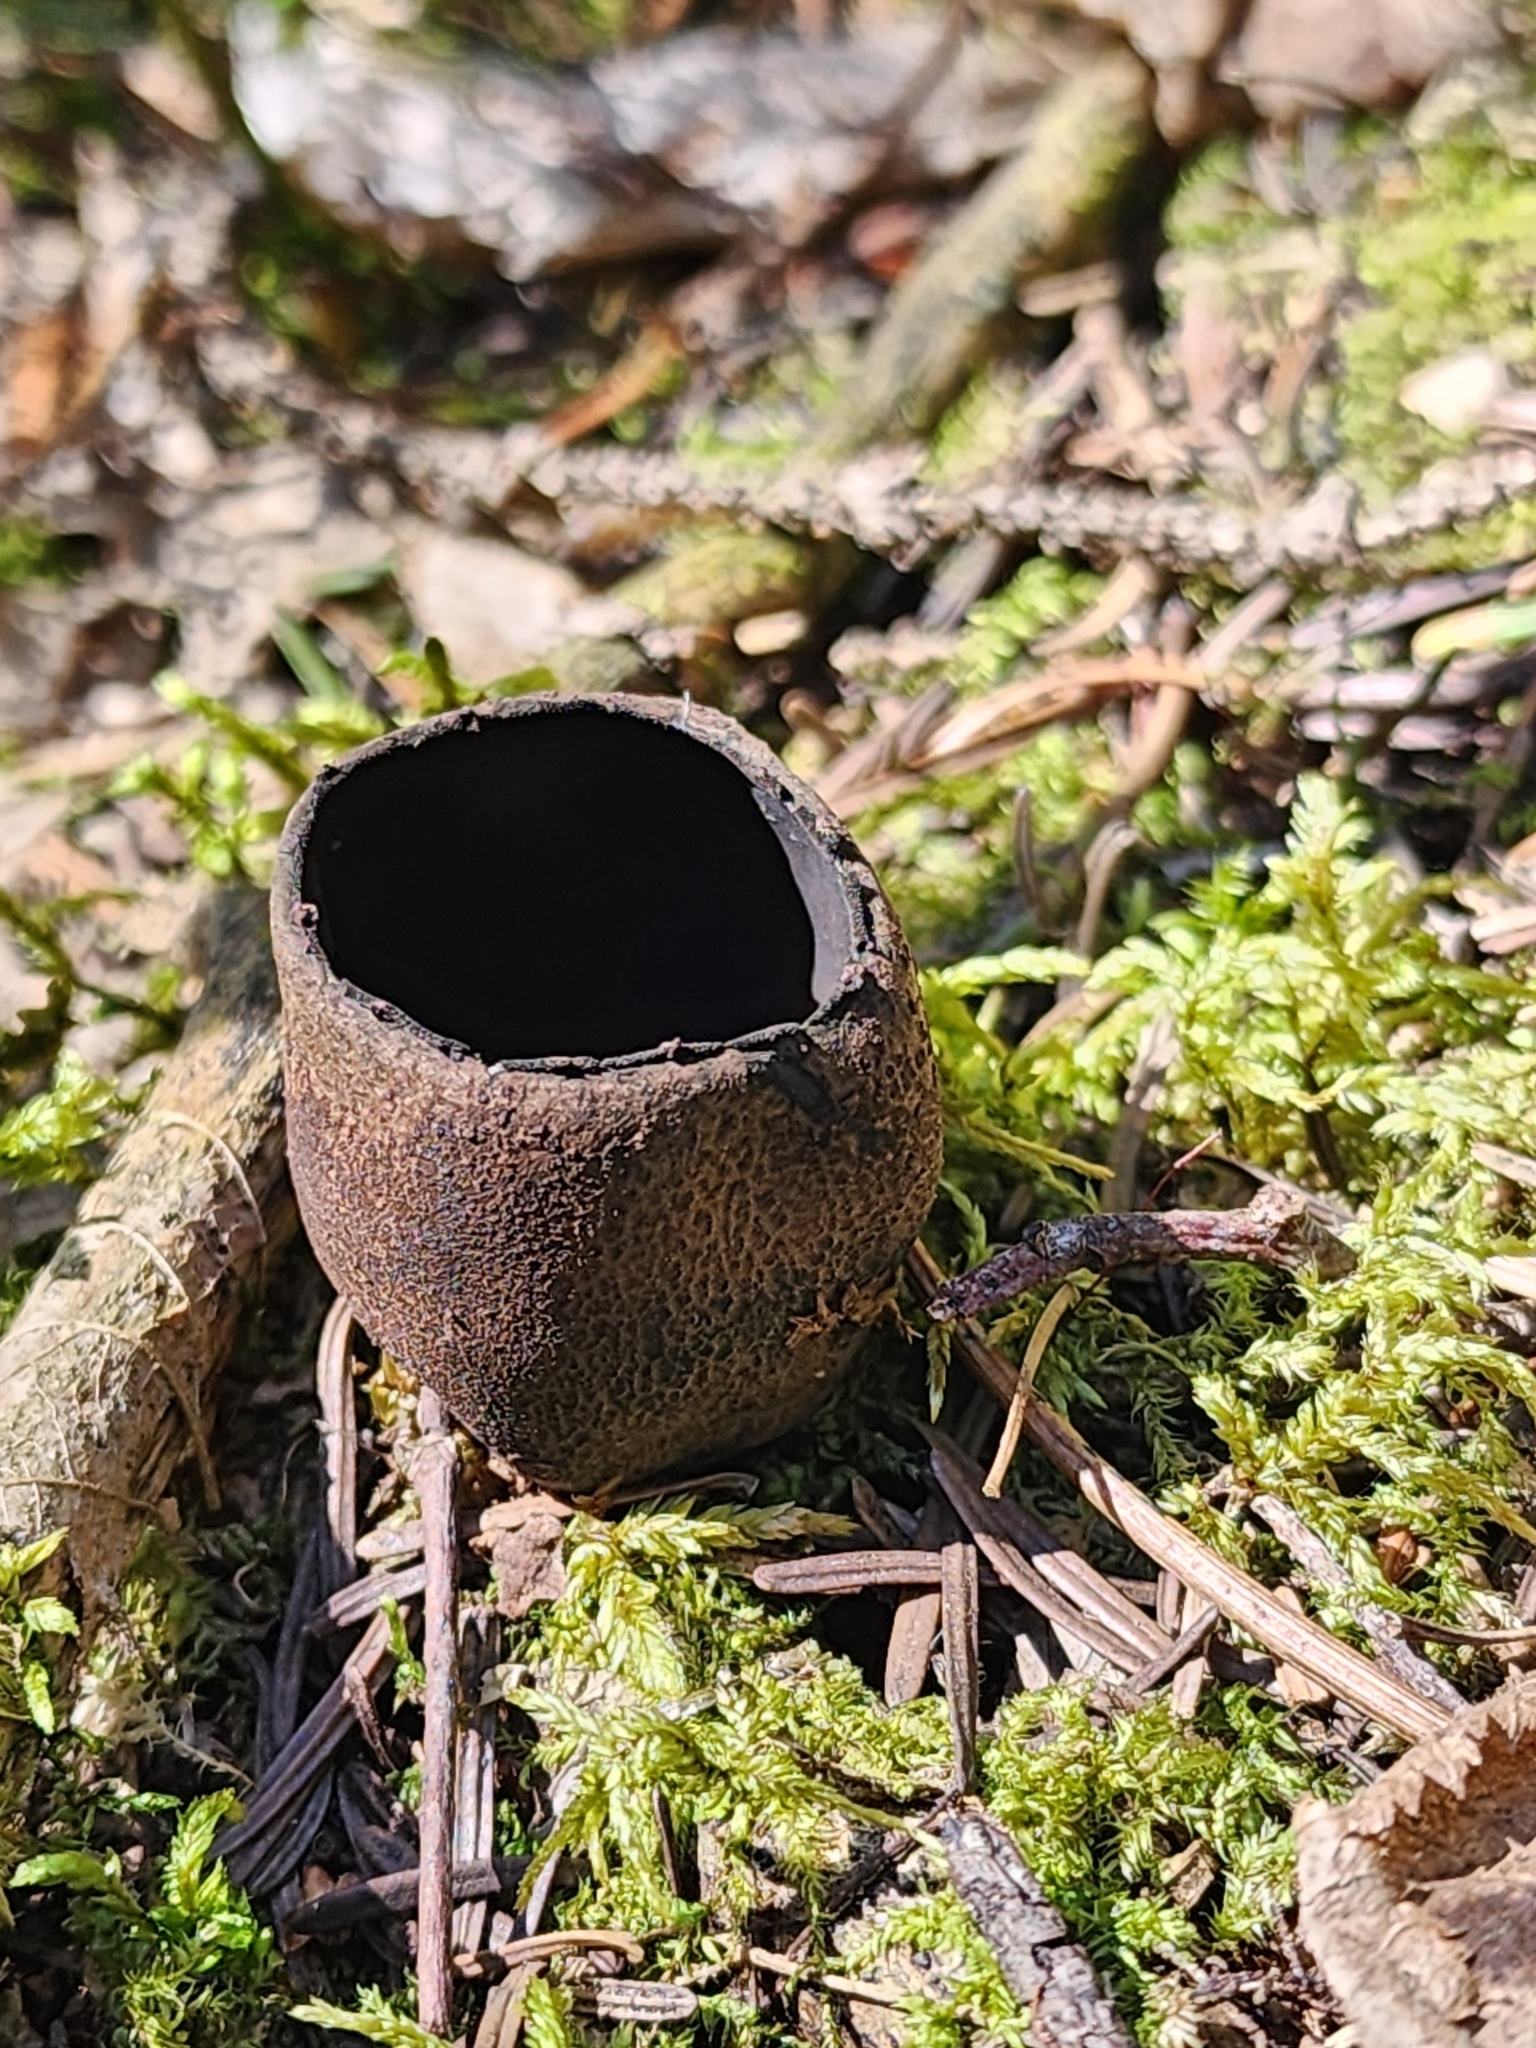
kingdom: Fungi
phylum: Ascomycota
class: Pezizomycetes
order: Pezizales
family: Sarcosomataceae
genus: Urnula
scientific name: Urnula craterium
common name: Devil's urn
